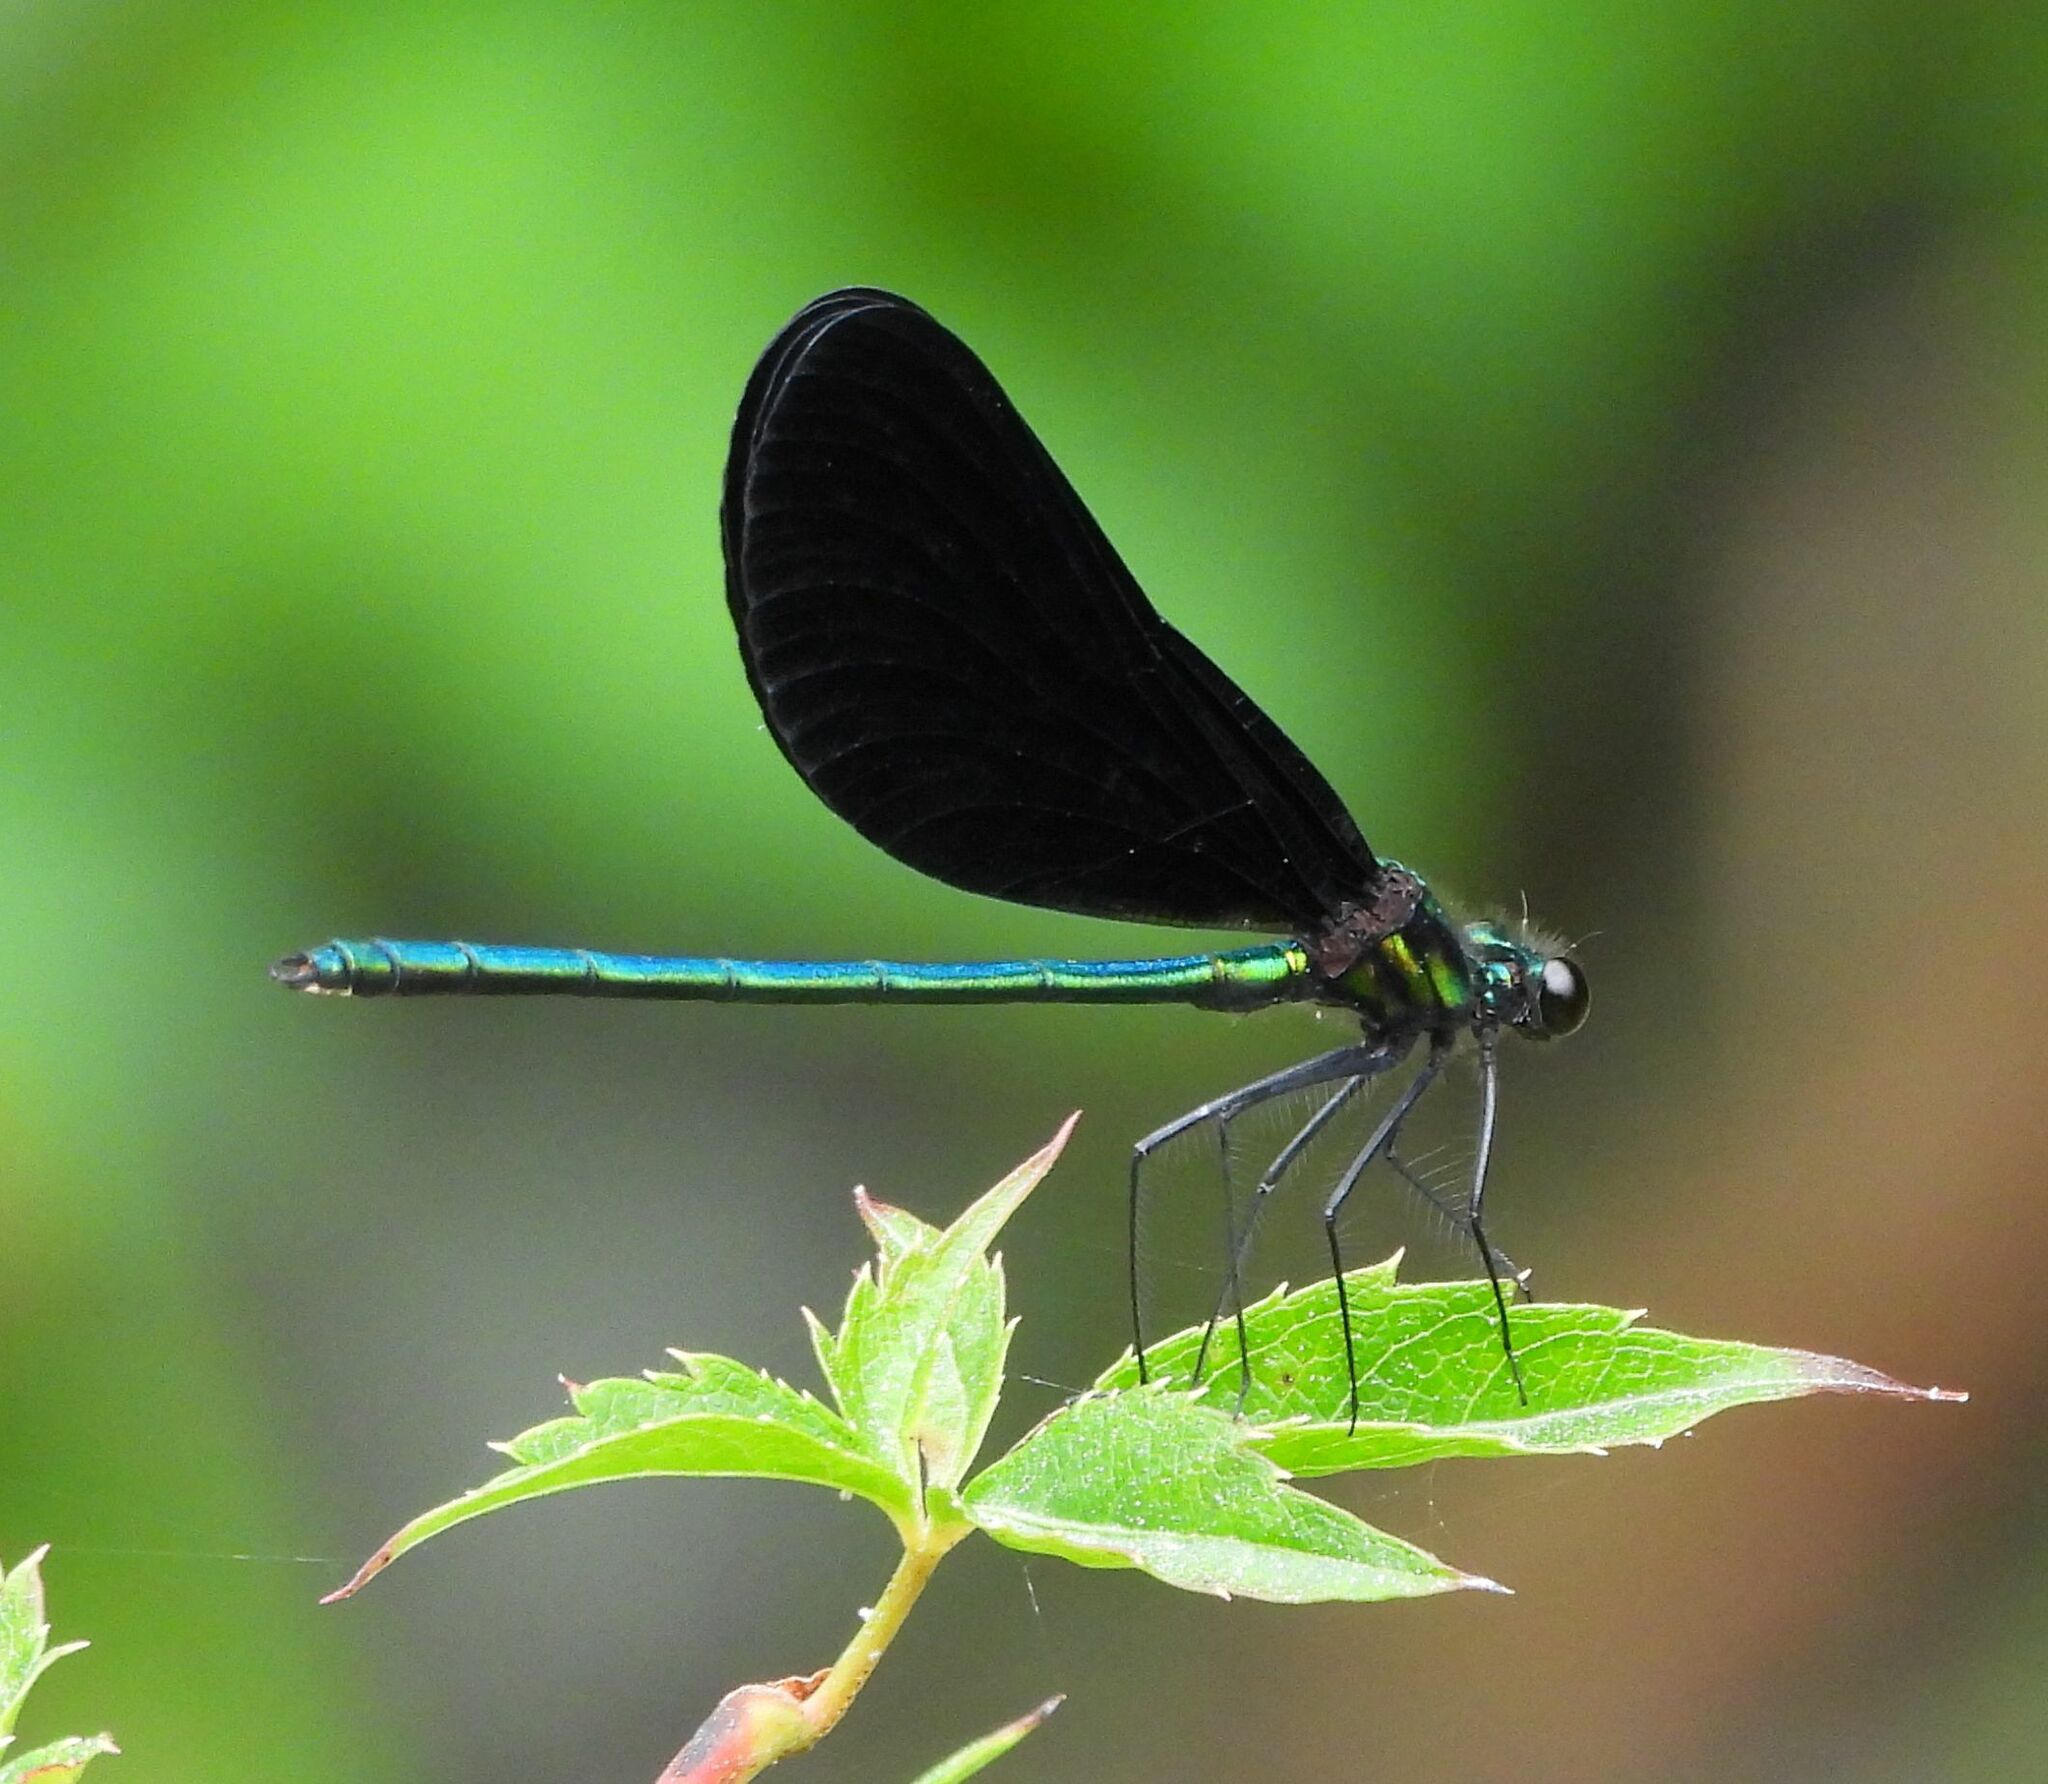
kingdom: Animalia
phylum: Arthropoda
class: Insecta
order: Odonata
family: Calopterygidae
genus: Calopteryx
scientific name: Calopteryx maculata
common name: Ebony jewelwing
